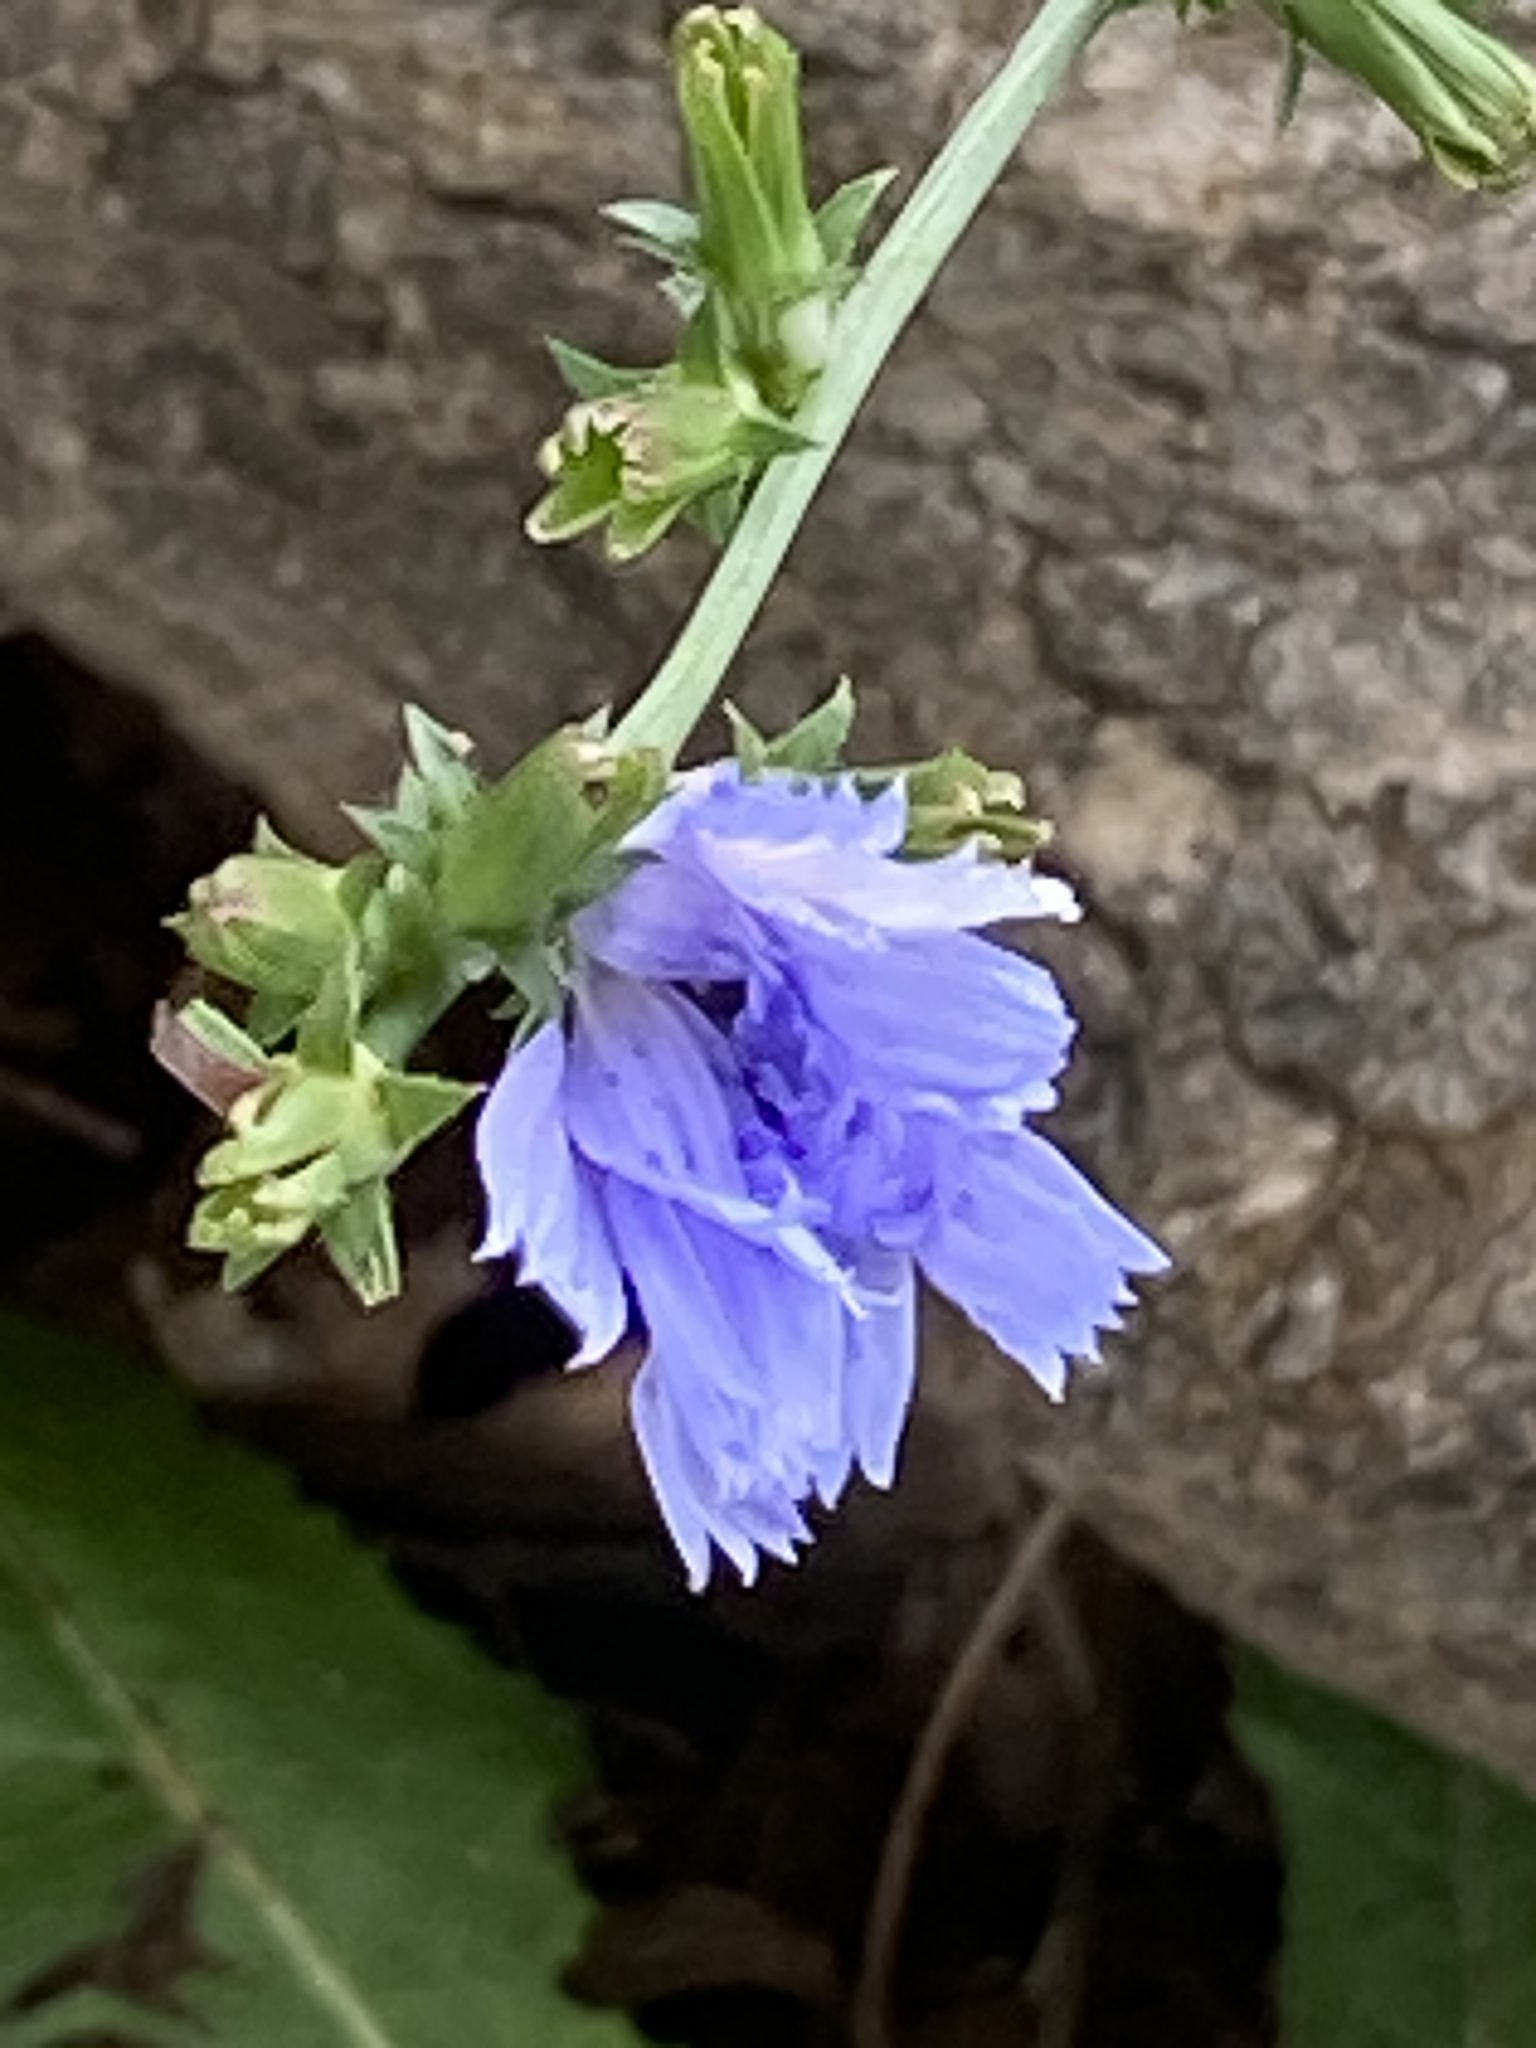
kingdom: Plantae
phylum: Tracheophyta
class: Magnoliopsida
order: Asterales
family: Asteraceae
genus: Cichorium
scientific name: Cichorium intybus
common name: Chicory
